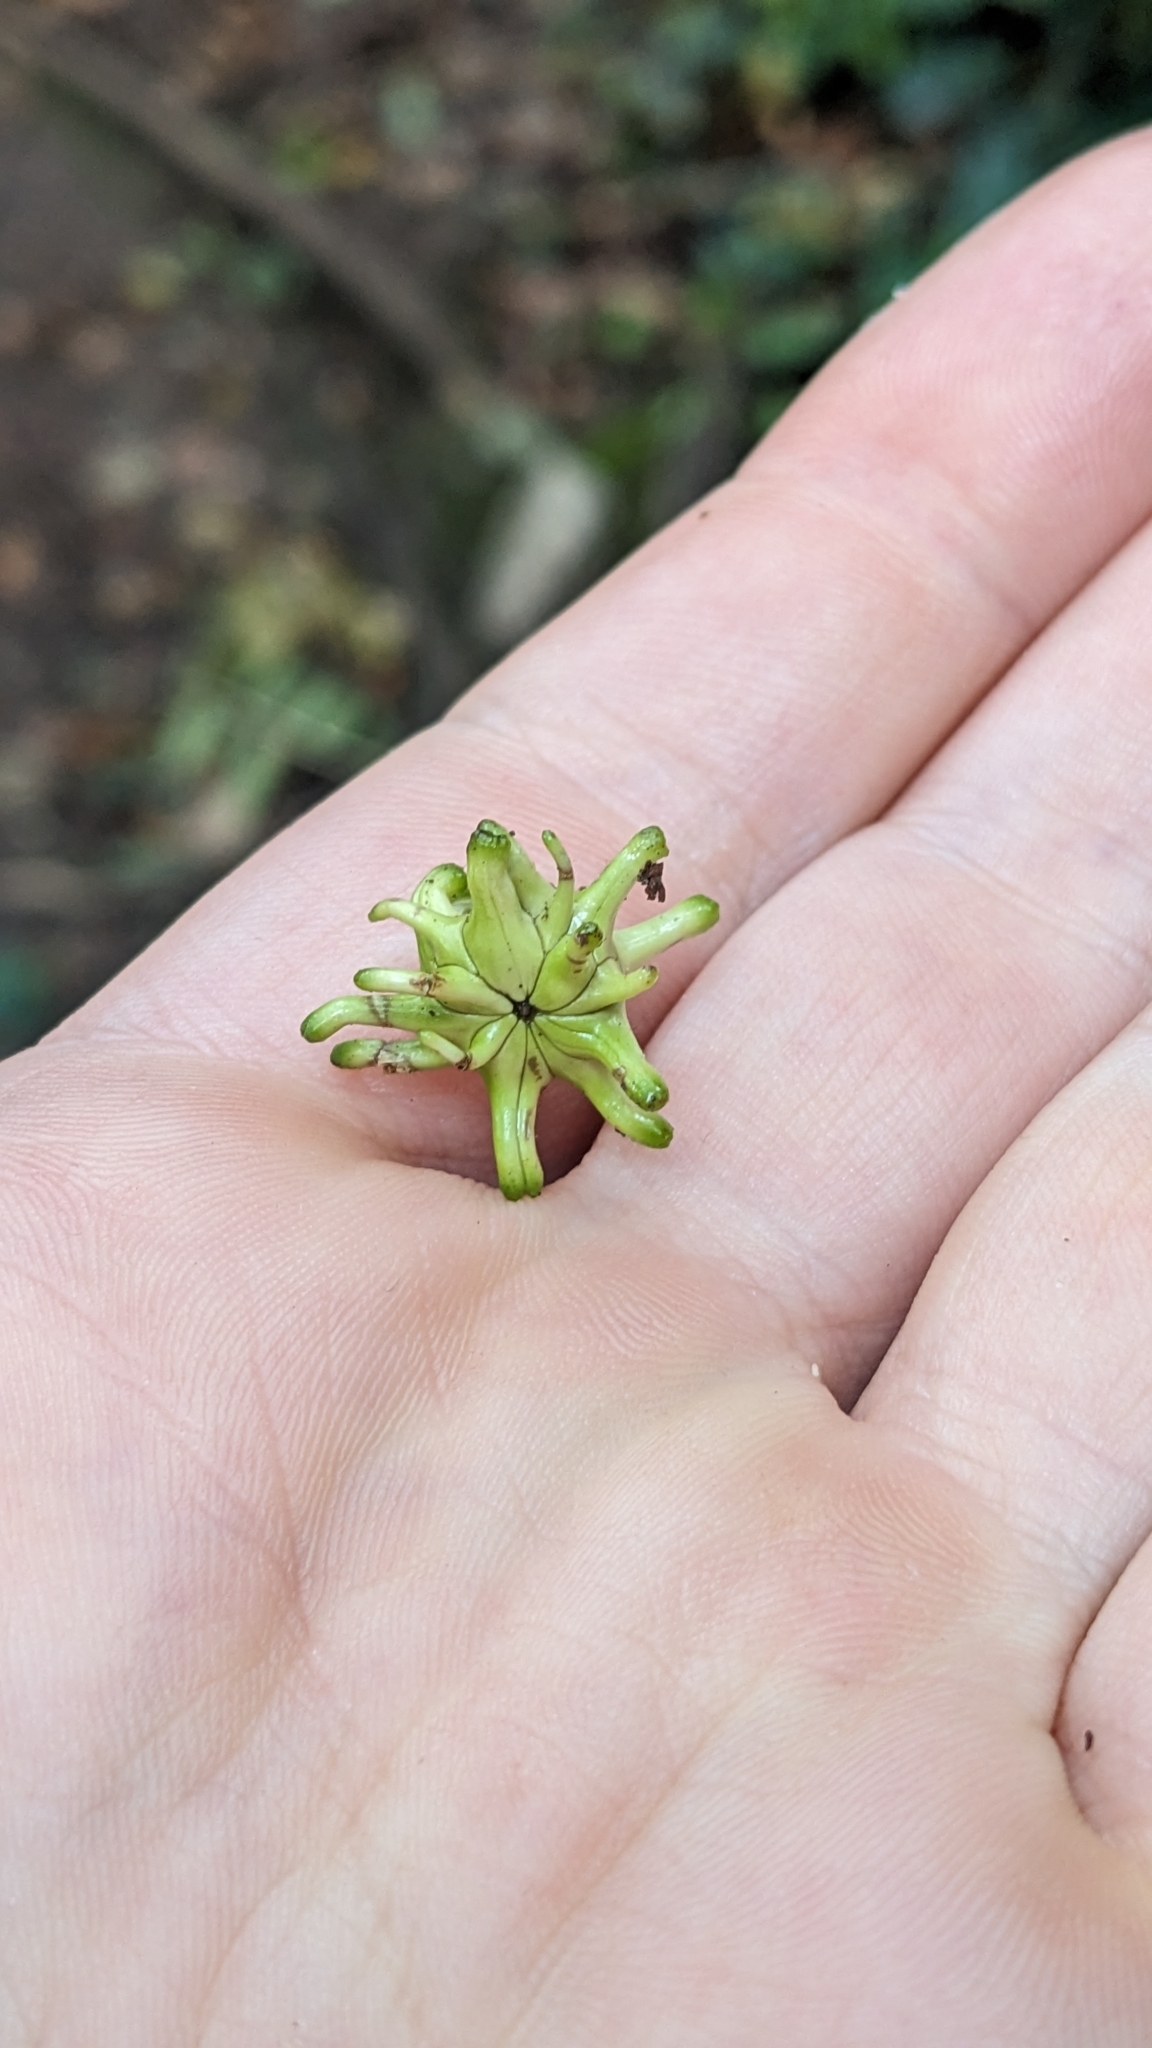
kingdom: Animalia
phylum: Arthropoda
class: Insecta
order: Hymenoptera
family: Cynipidae
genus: Andricus
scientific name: Andricus grossulariae
